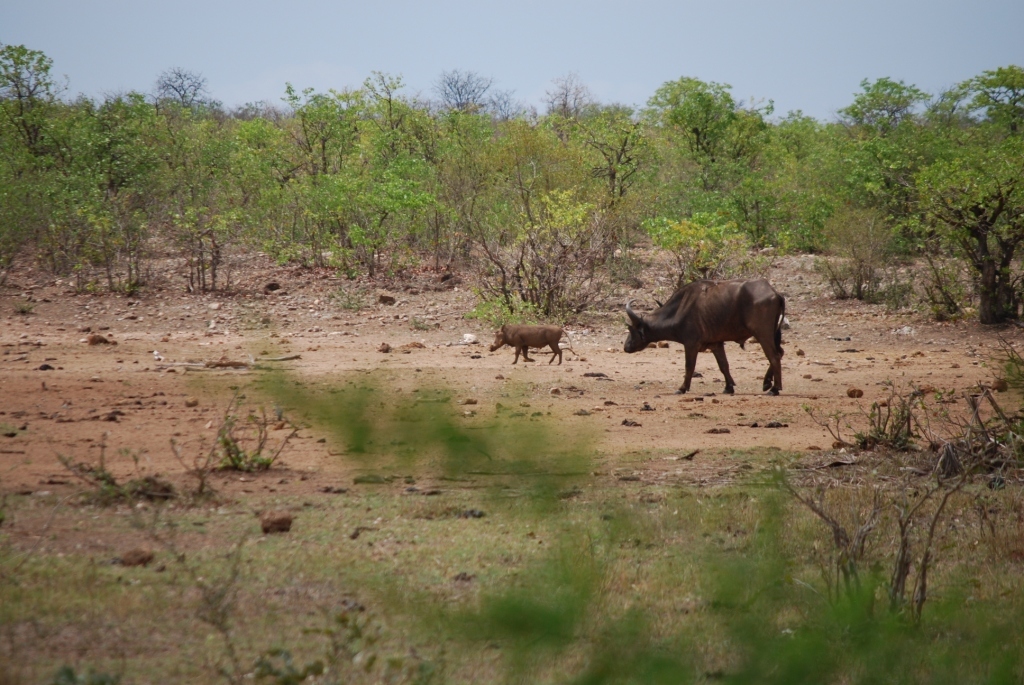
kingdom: Animalia
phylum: Chordata
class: Mammalia
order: Artiodactyla
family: Suidae
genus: Phacochoerus
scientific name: Phacochoerus africanus
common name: Common warthog
